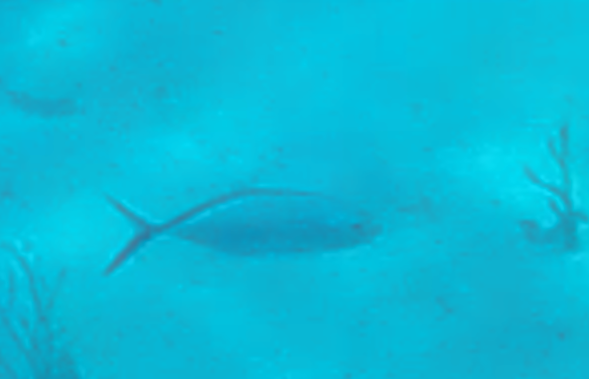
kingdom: Animalia
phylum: Chordata
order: Perciformes
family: Carangidae
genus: Caranx
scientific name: Caranx ruber
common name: Bar jack
